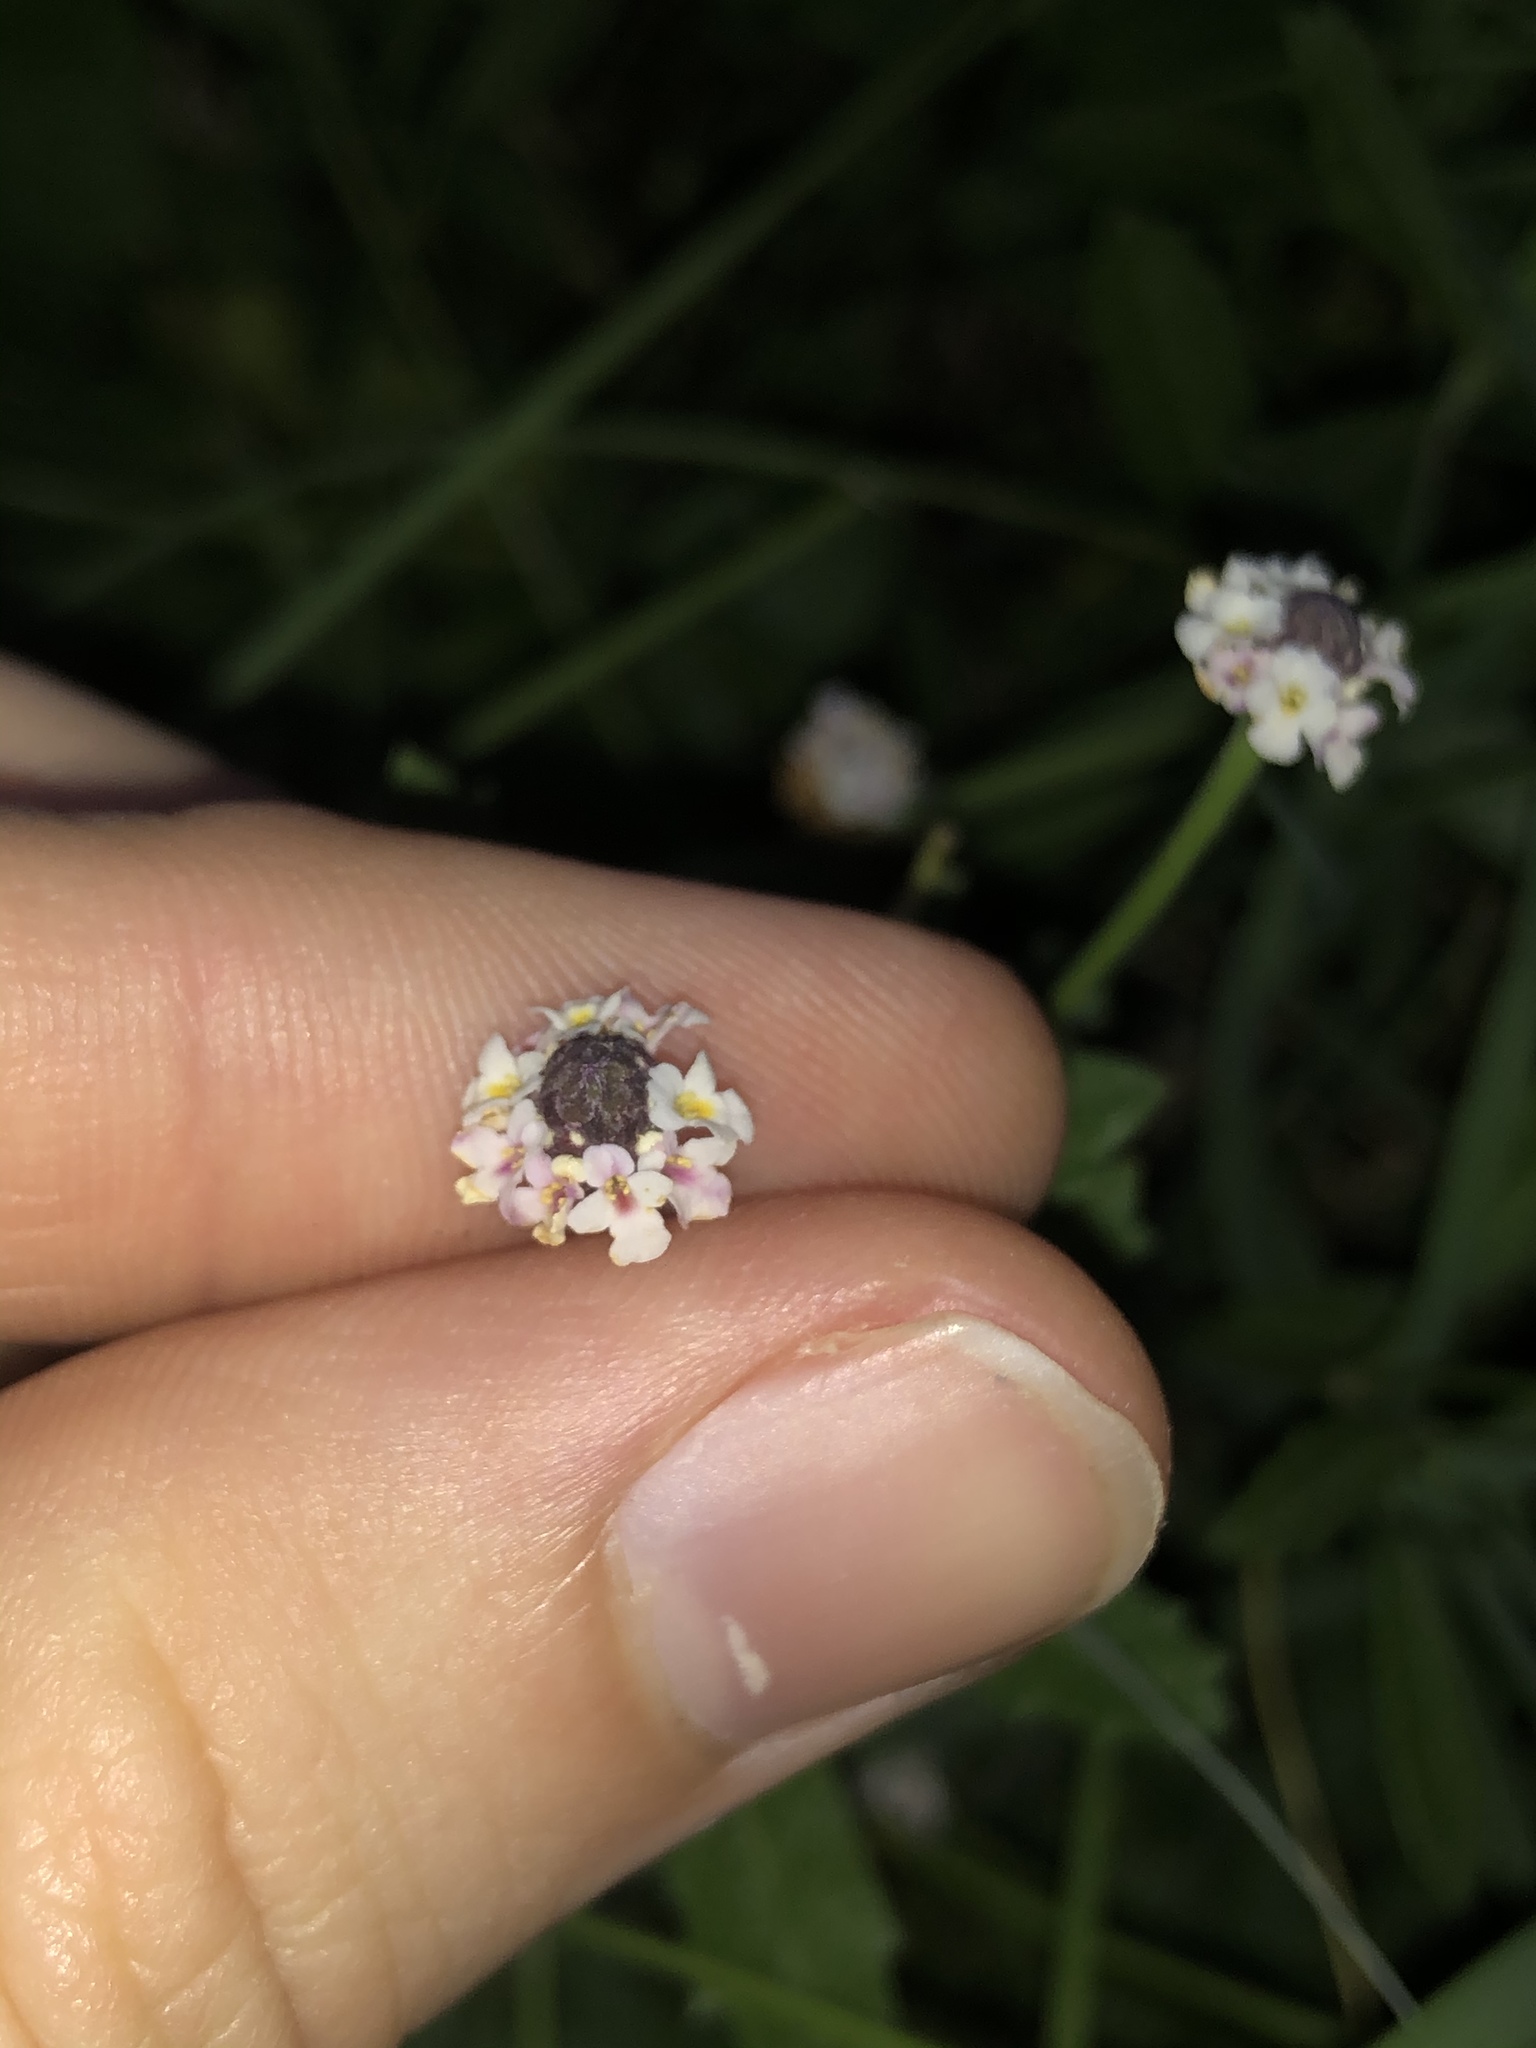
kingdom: Plantae
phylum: Tracheophyta
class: Magnoliopsida
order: Lamiales
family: Verbenaceae
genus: Phyla
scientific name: Phyla nodiflora
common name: Frogfruit
